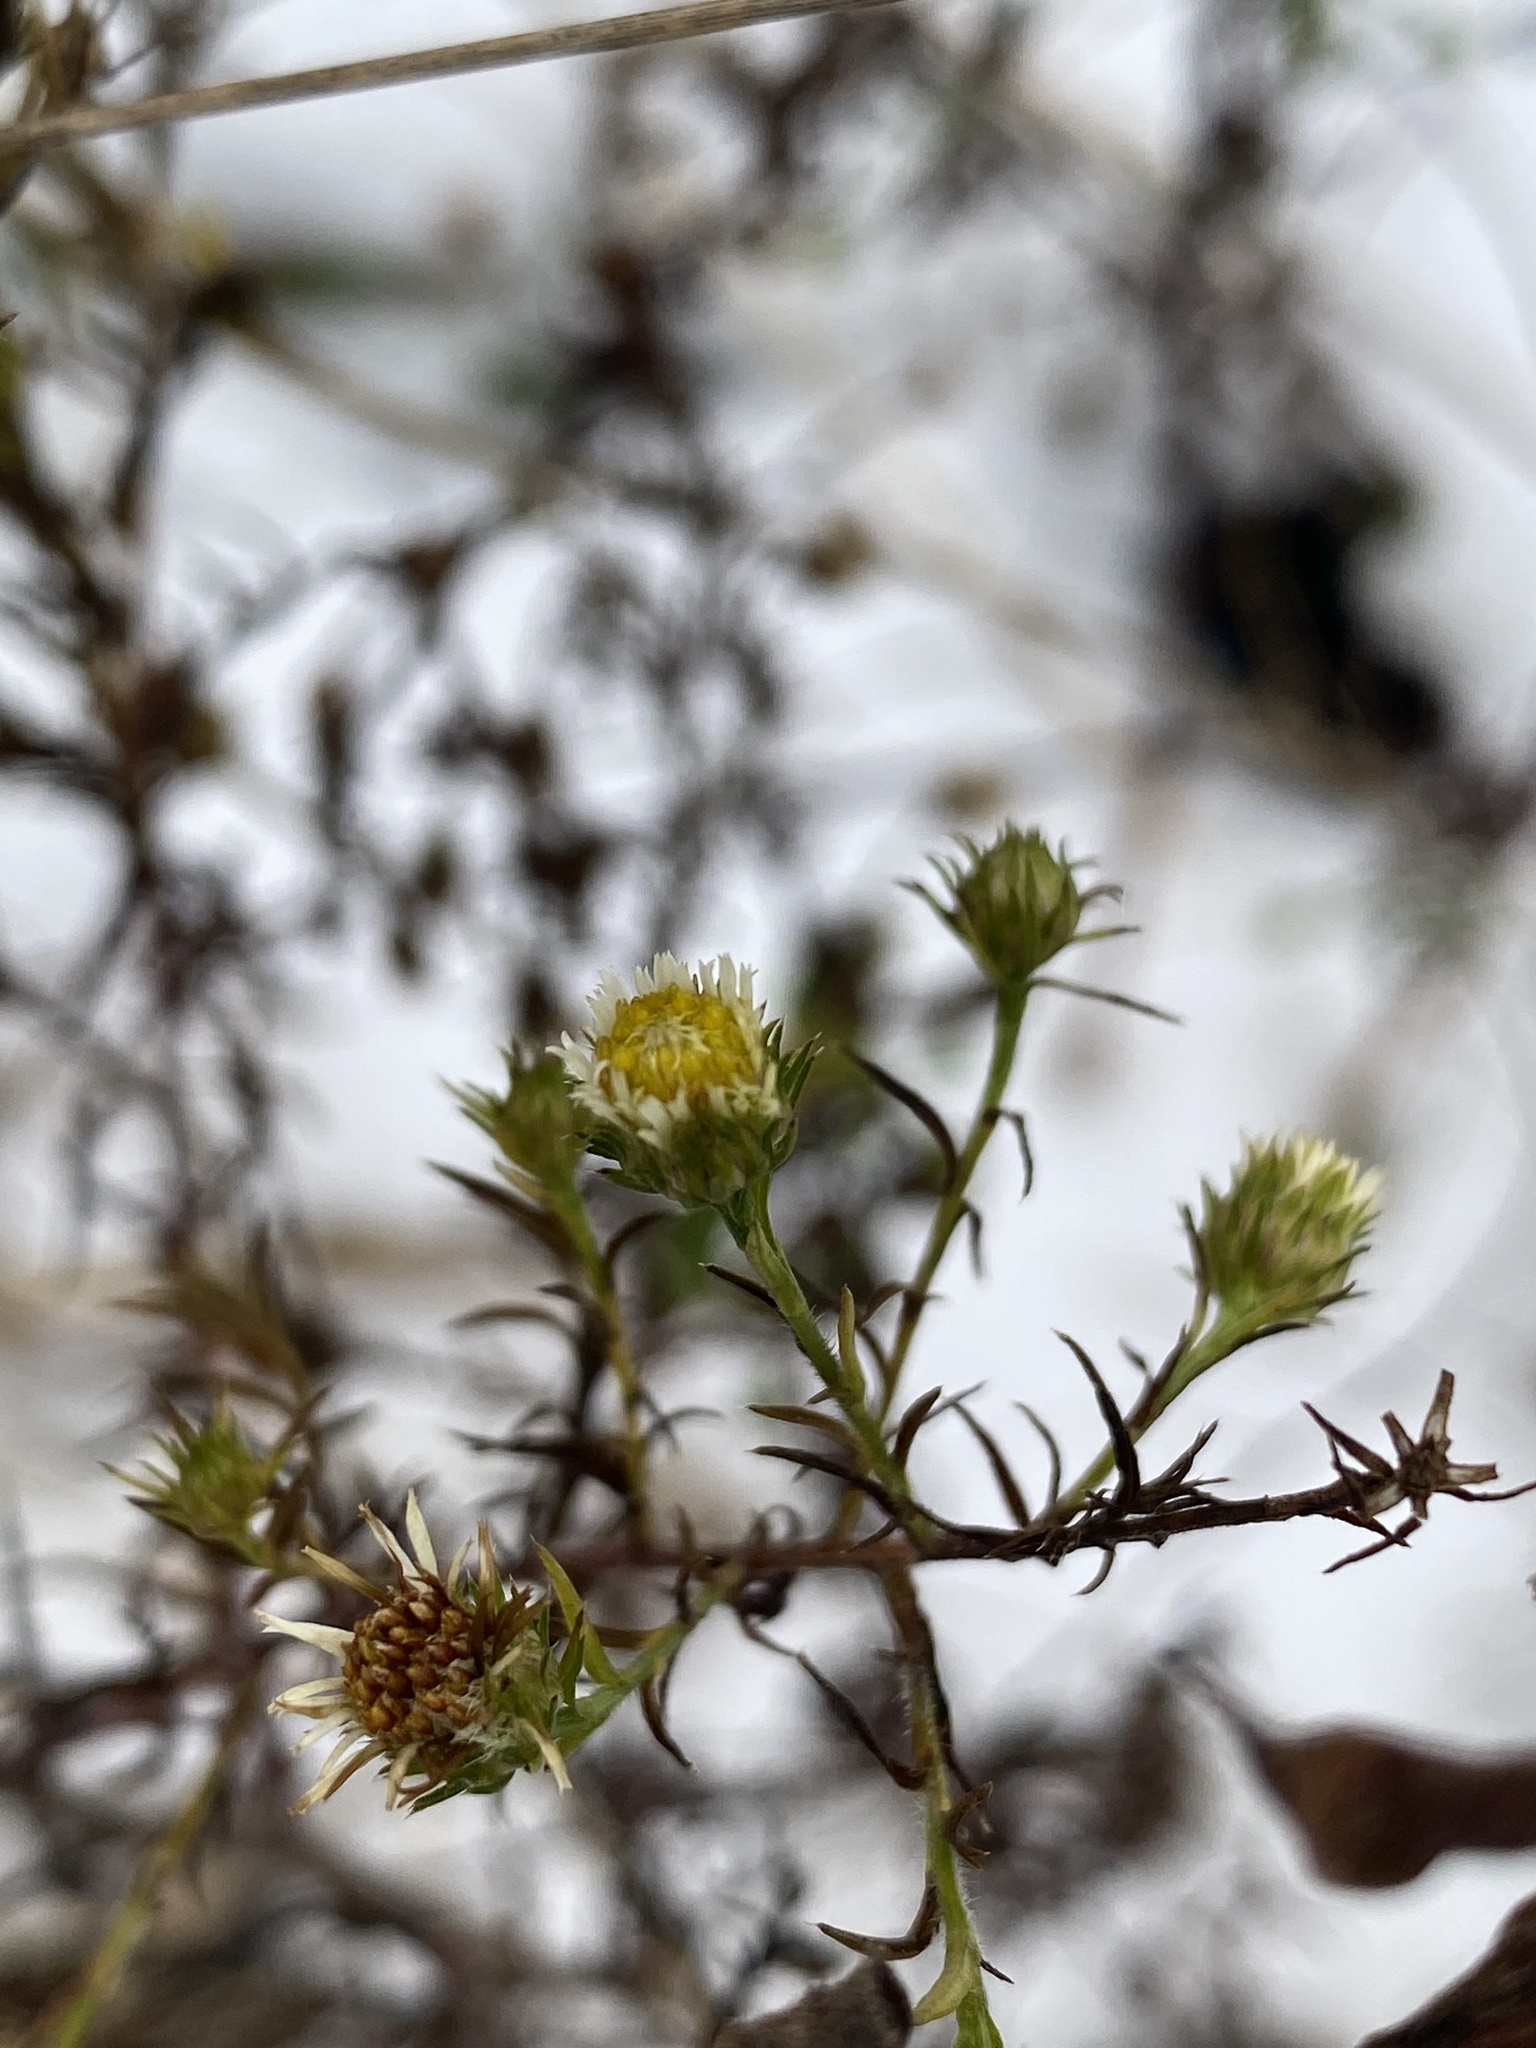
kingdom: Plantae
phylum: Tracheophyta
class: Magnoliopsida
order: Asterales
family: Asteraceae
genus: Symphyotrichum
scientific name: Symphyotrichum pilosum
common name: Awl aster
